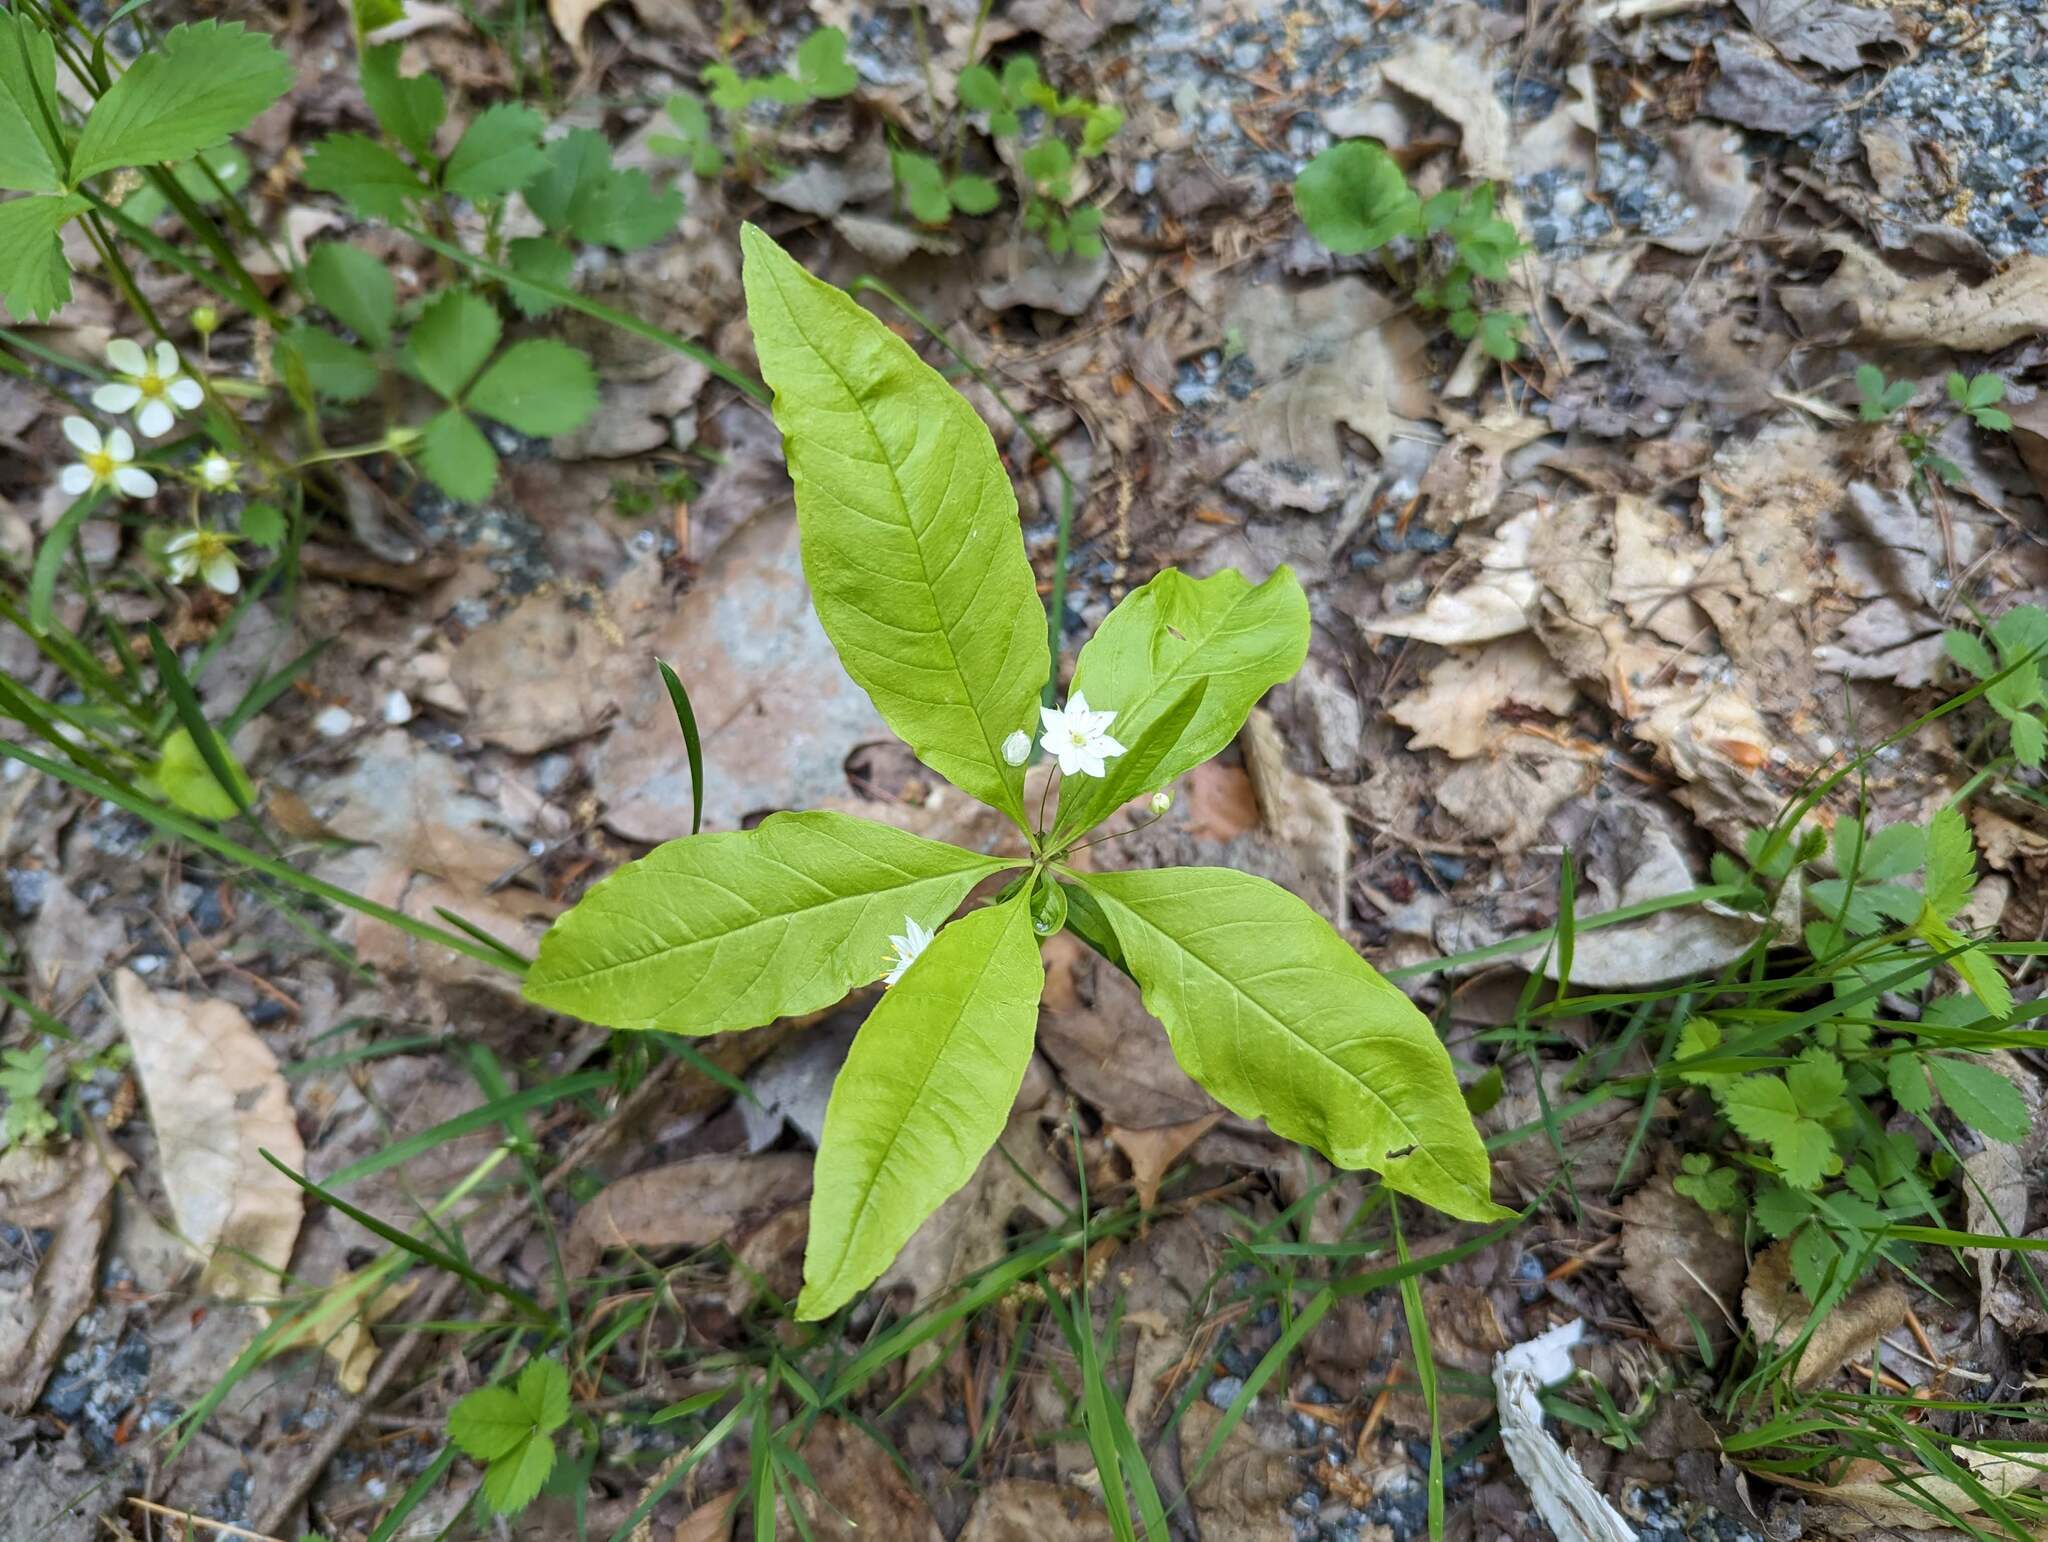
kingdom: Plantae
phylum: Tracheophyta
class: Magnoliopsida
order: Ericales
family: Primulaceae
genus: Lysimachia
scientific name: Lysimachia borealis
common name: American starflower
